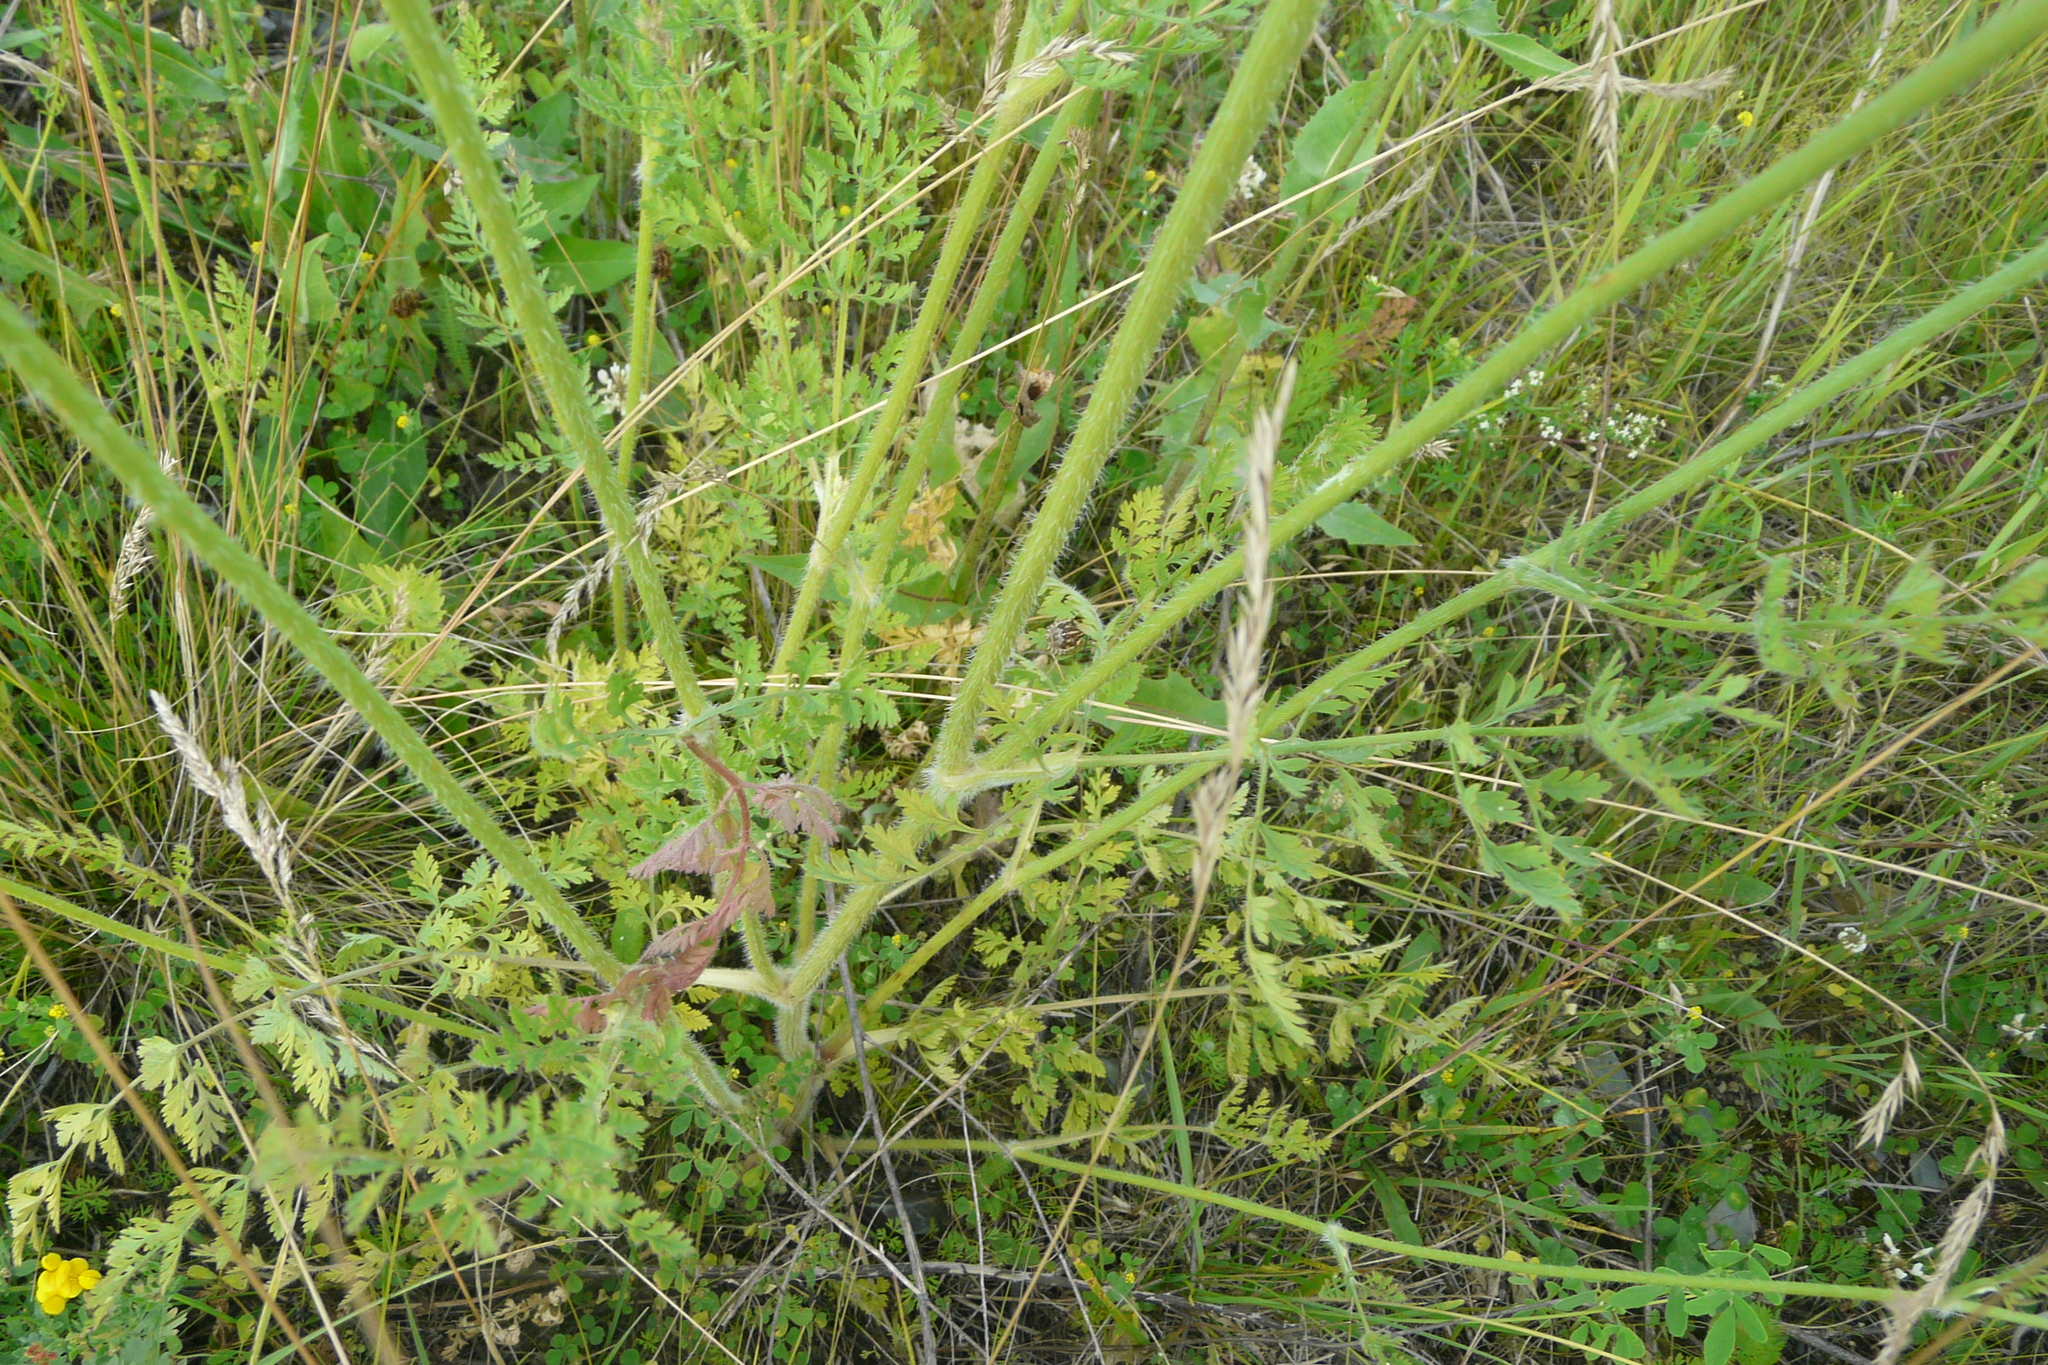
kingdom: Plantae
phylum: Tracheophyta
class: Magnoliopsida
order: Apiales
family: Apiaceae
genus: Daucus
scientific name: Daucus carota
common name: Wild carrot
